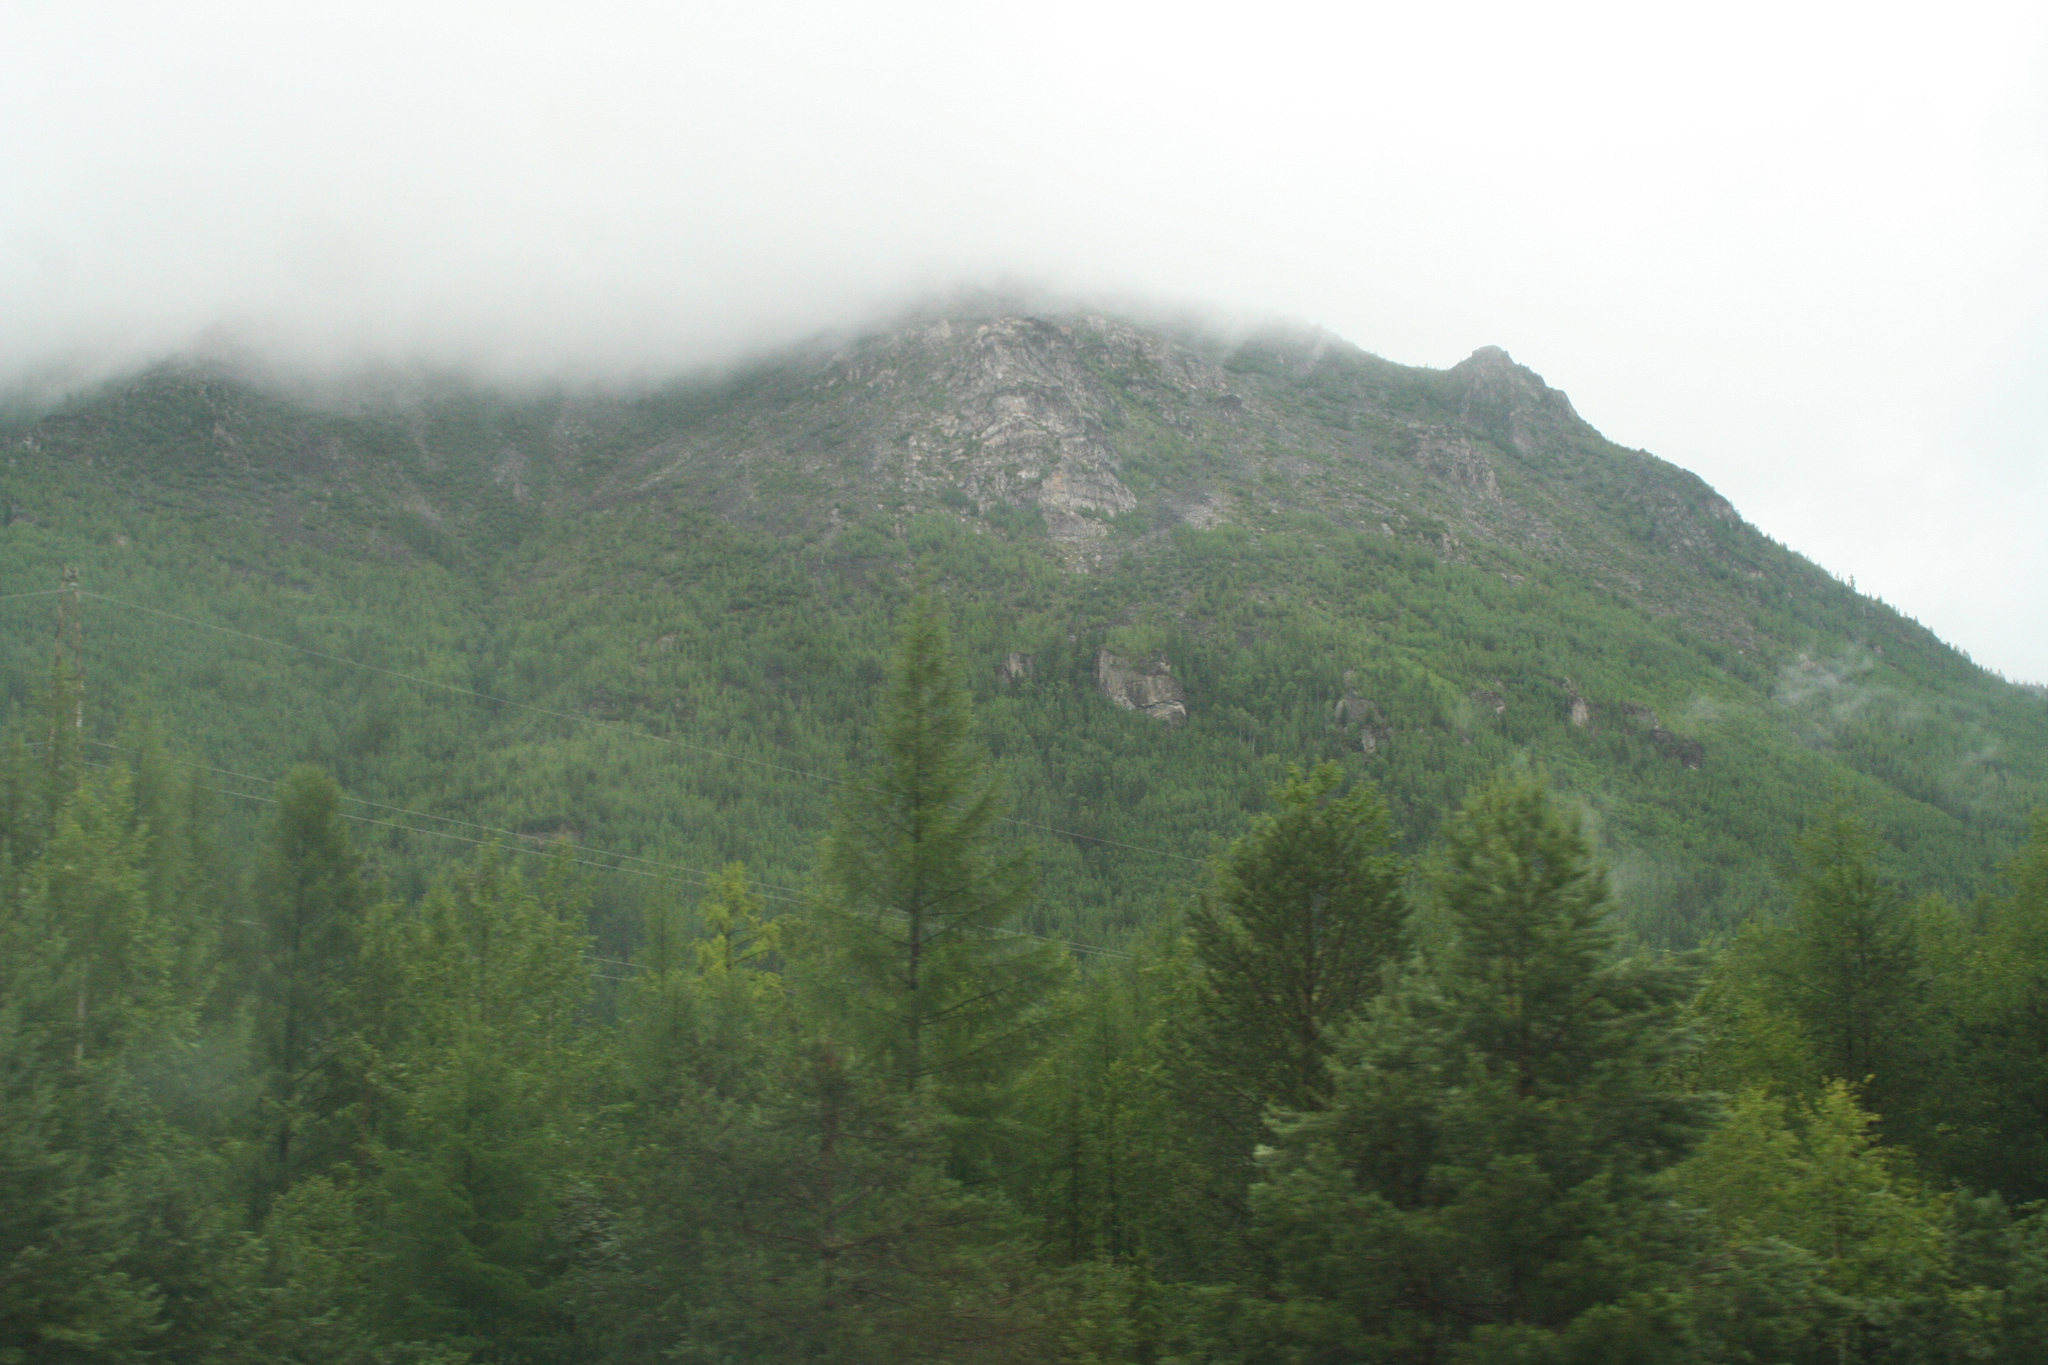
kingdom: Plantae
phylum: Tracheophyta
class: Pinopsida
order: Pinales
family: Pinaceae
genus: Larix
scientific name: Larix gmelinii
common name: Dahurian larch
